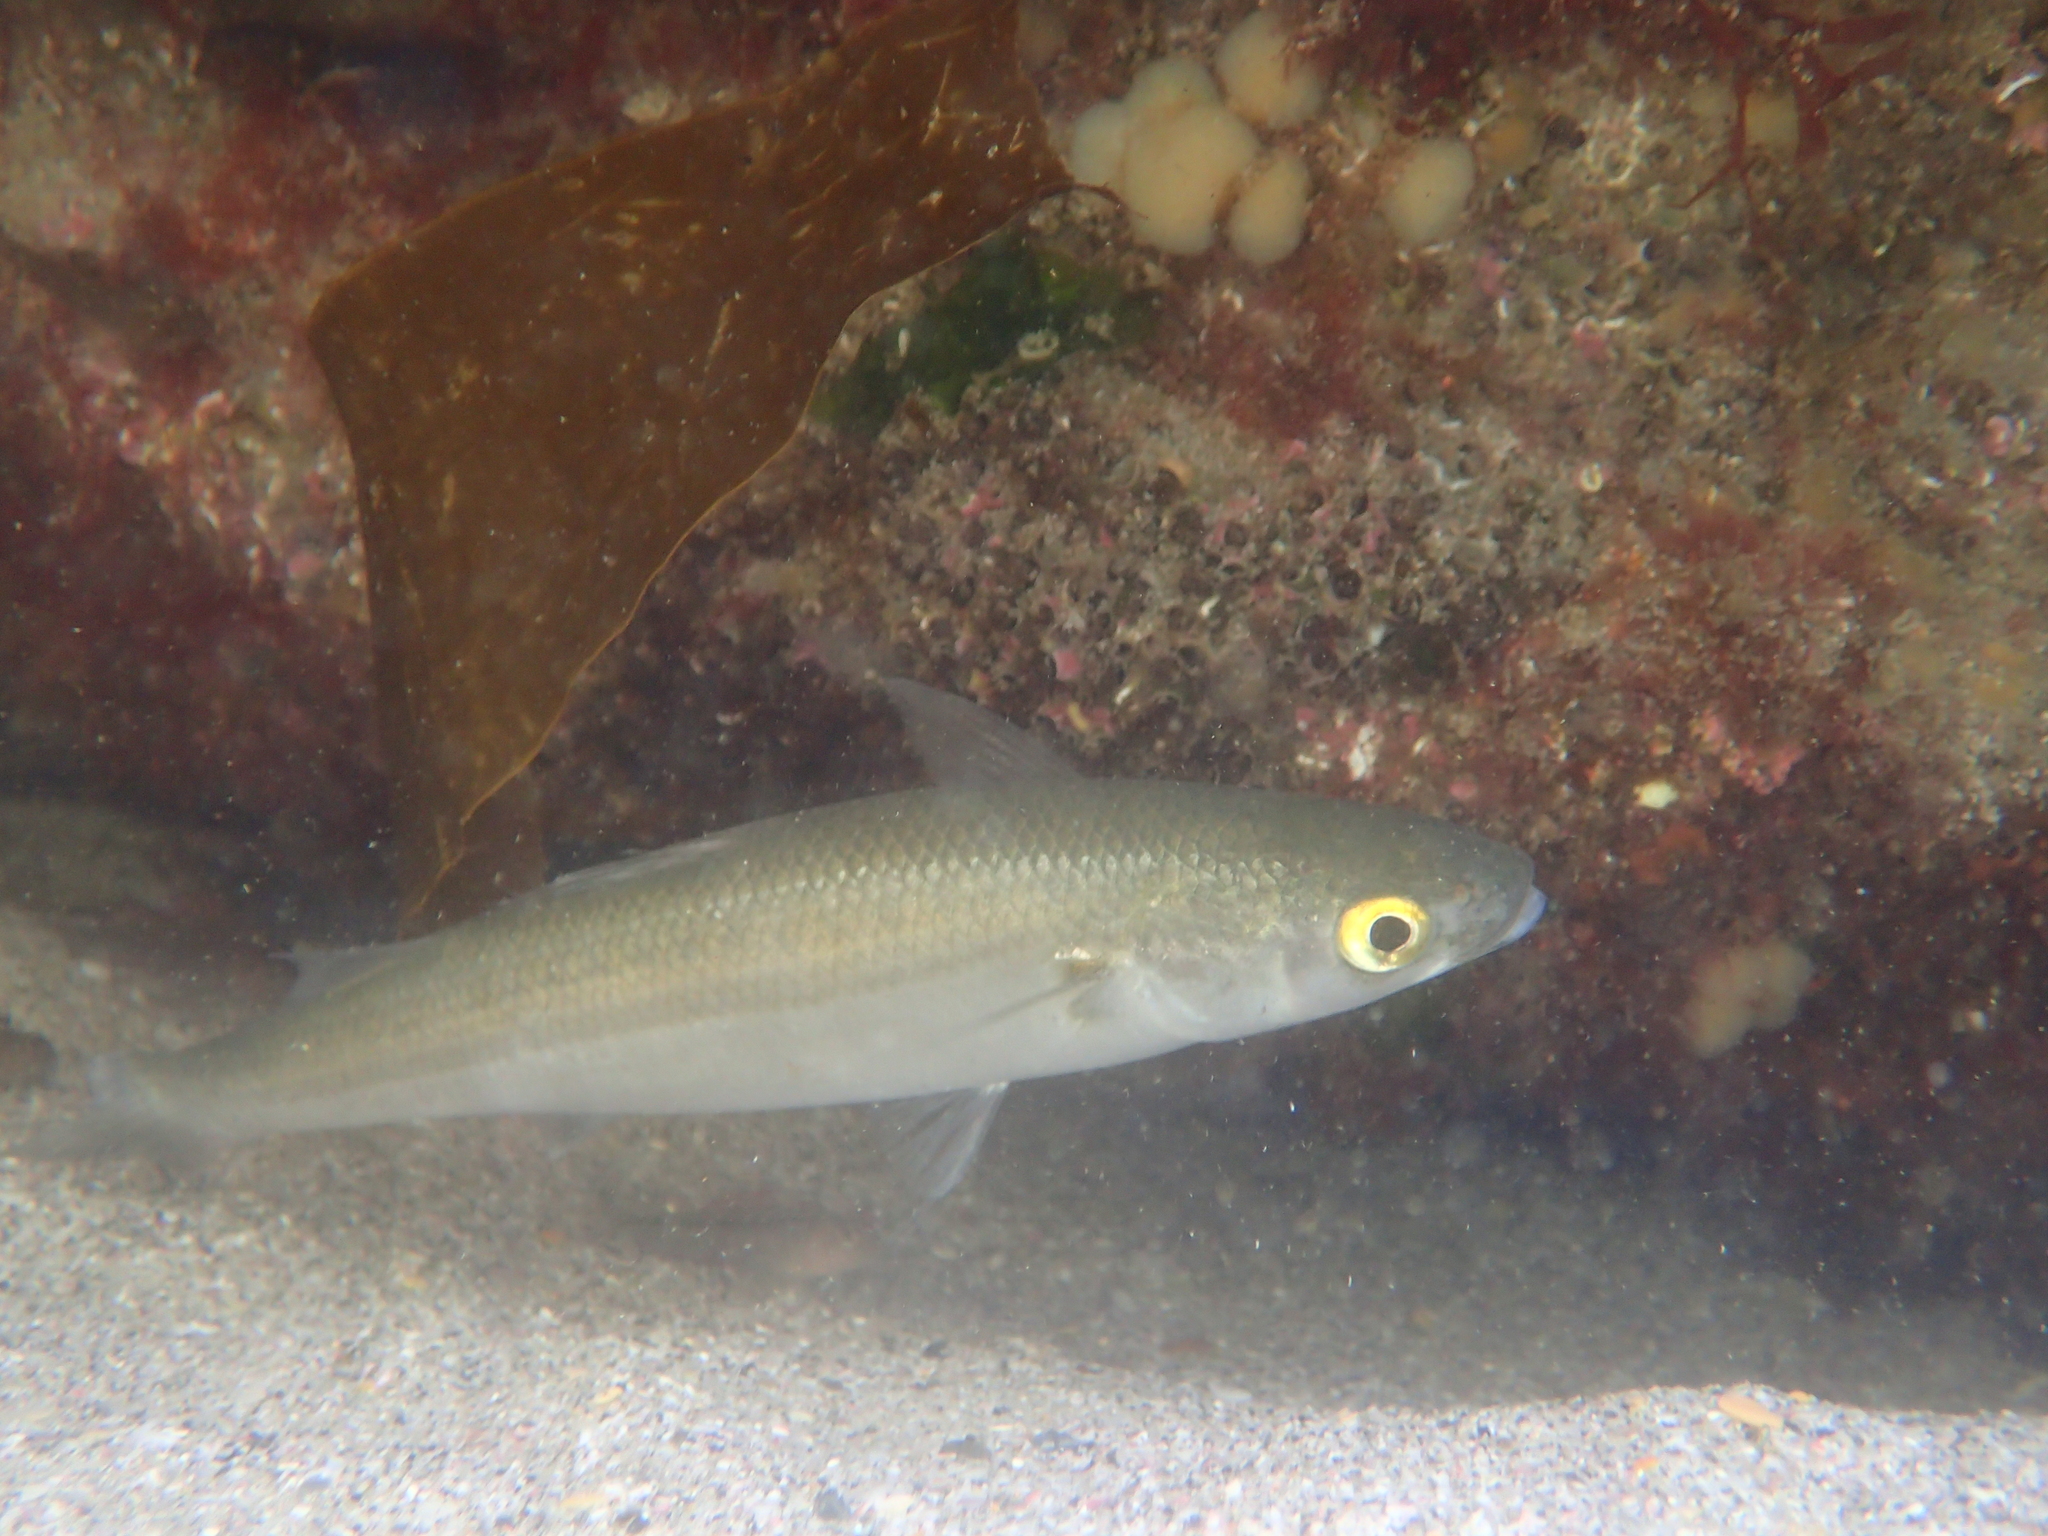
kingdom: Animalia
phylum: Chordata
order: Mugiliformes
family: Mugilidae
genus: Aldrichetta
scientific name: Aldrichetta forsteri
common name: Yellow-eye mullet
